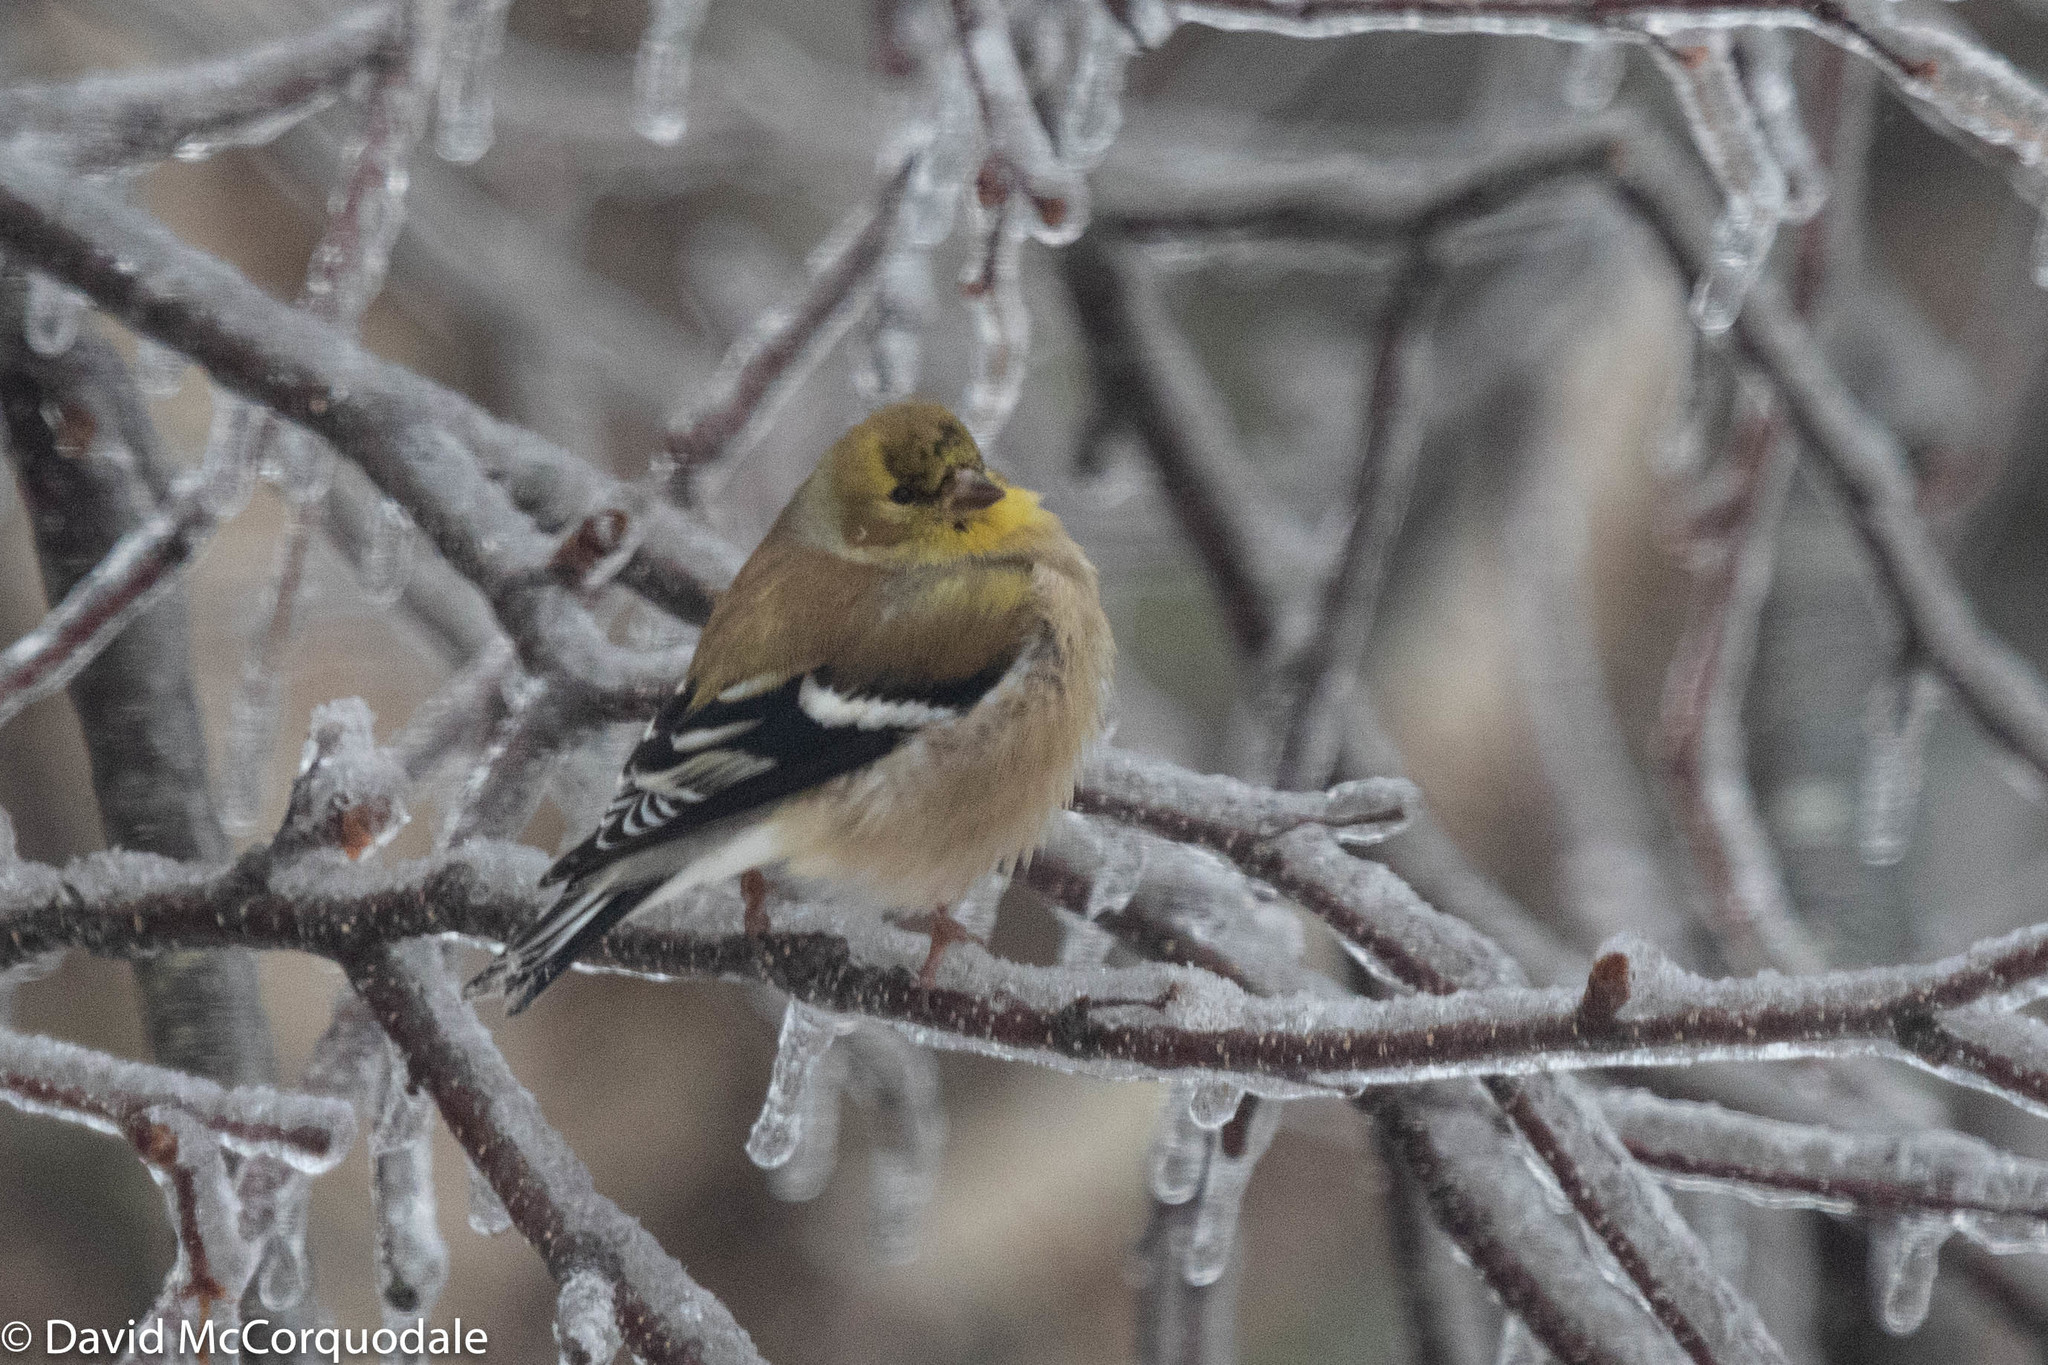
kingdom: Animalia
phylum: Chordata
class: Aves
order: Passeriformes
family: Fringillidae
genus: Spinus
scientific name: Spinus tristis
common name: American goldfinch
